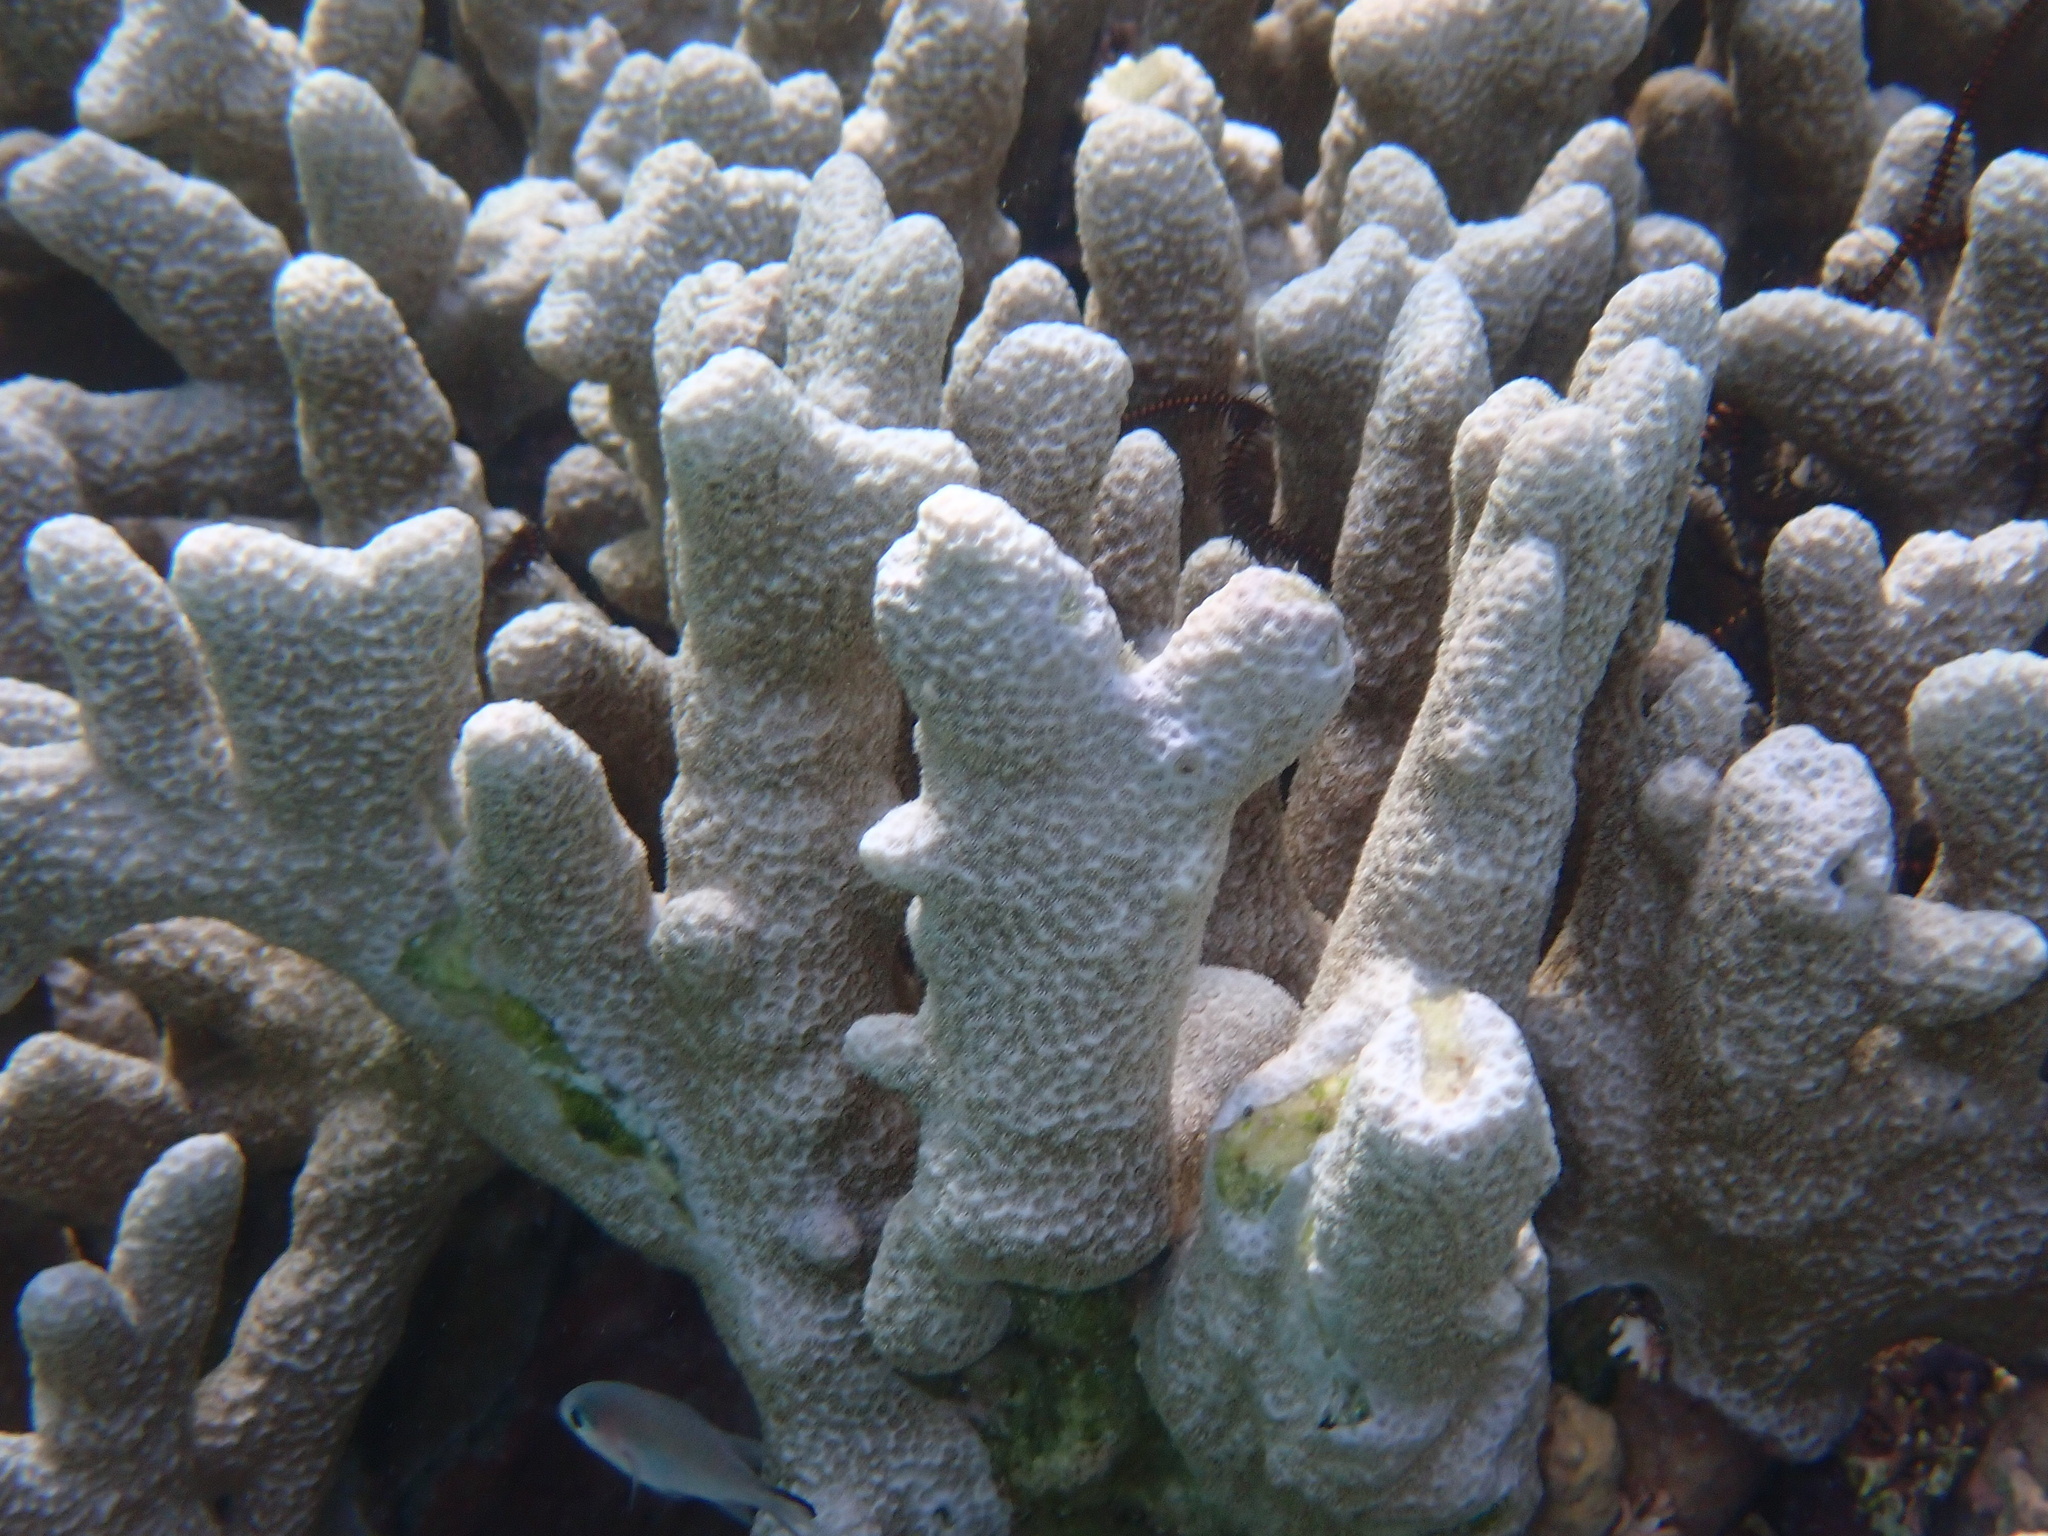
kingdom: Animalia
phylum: Cnidaria
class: Anthozoa
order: Scleractinia
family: Poritidae
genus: Porites
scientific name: Porites tuberculosus
